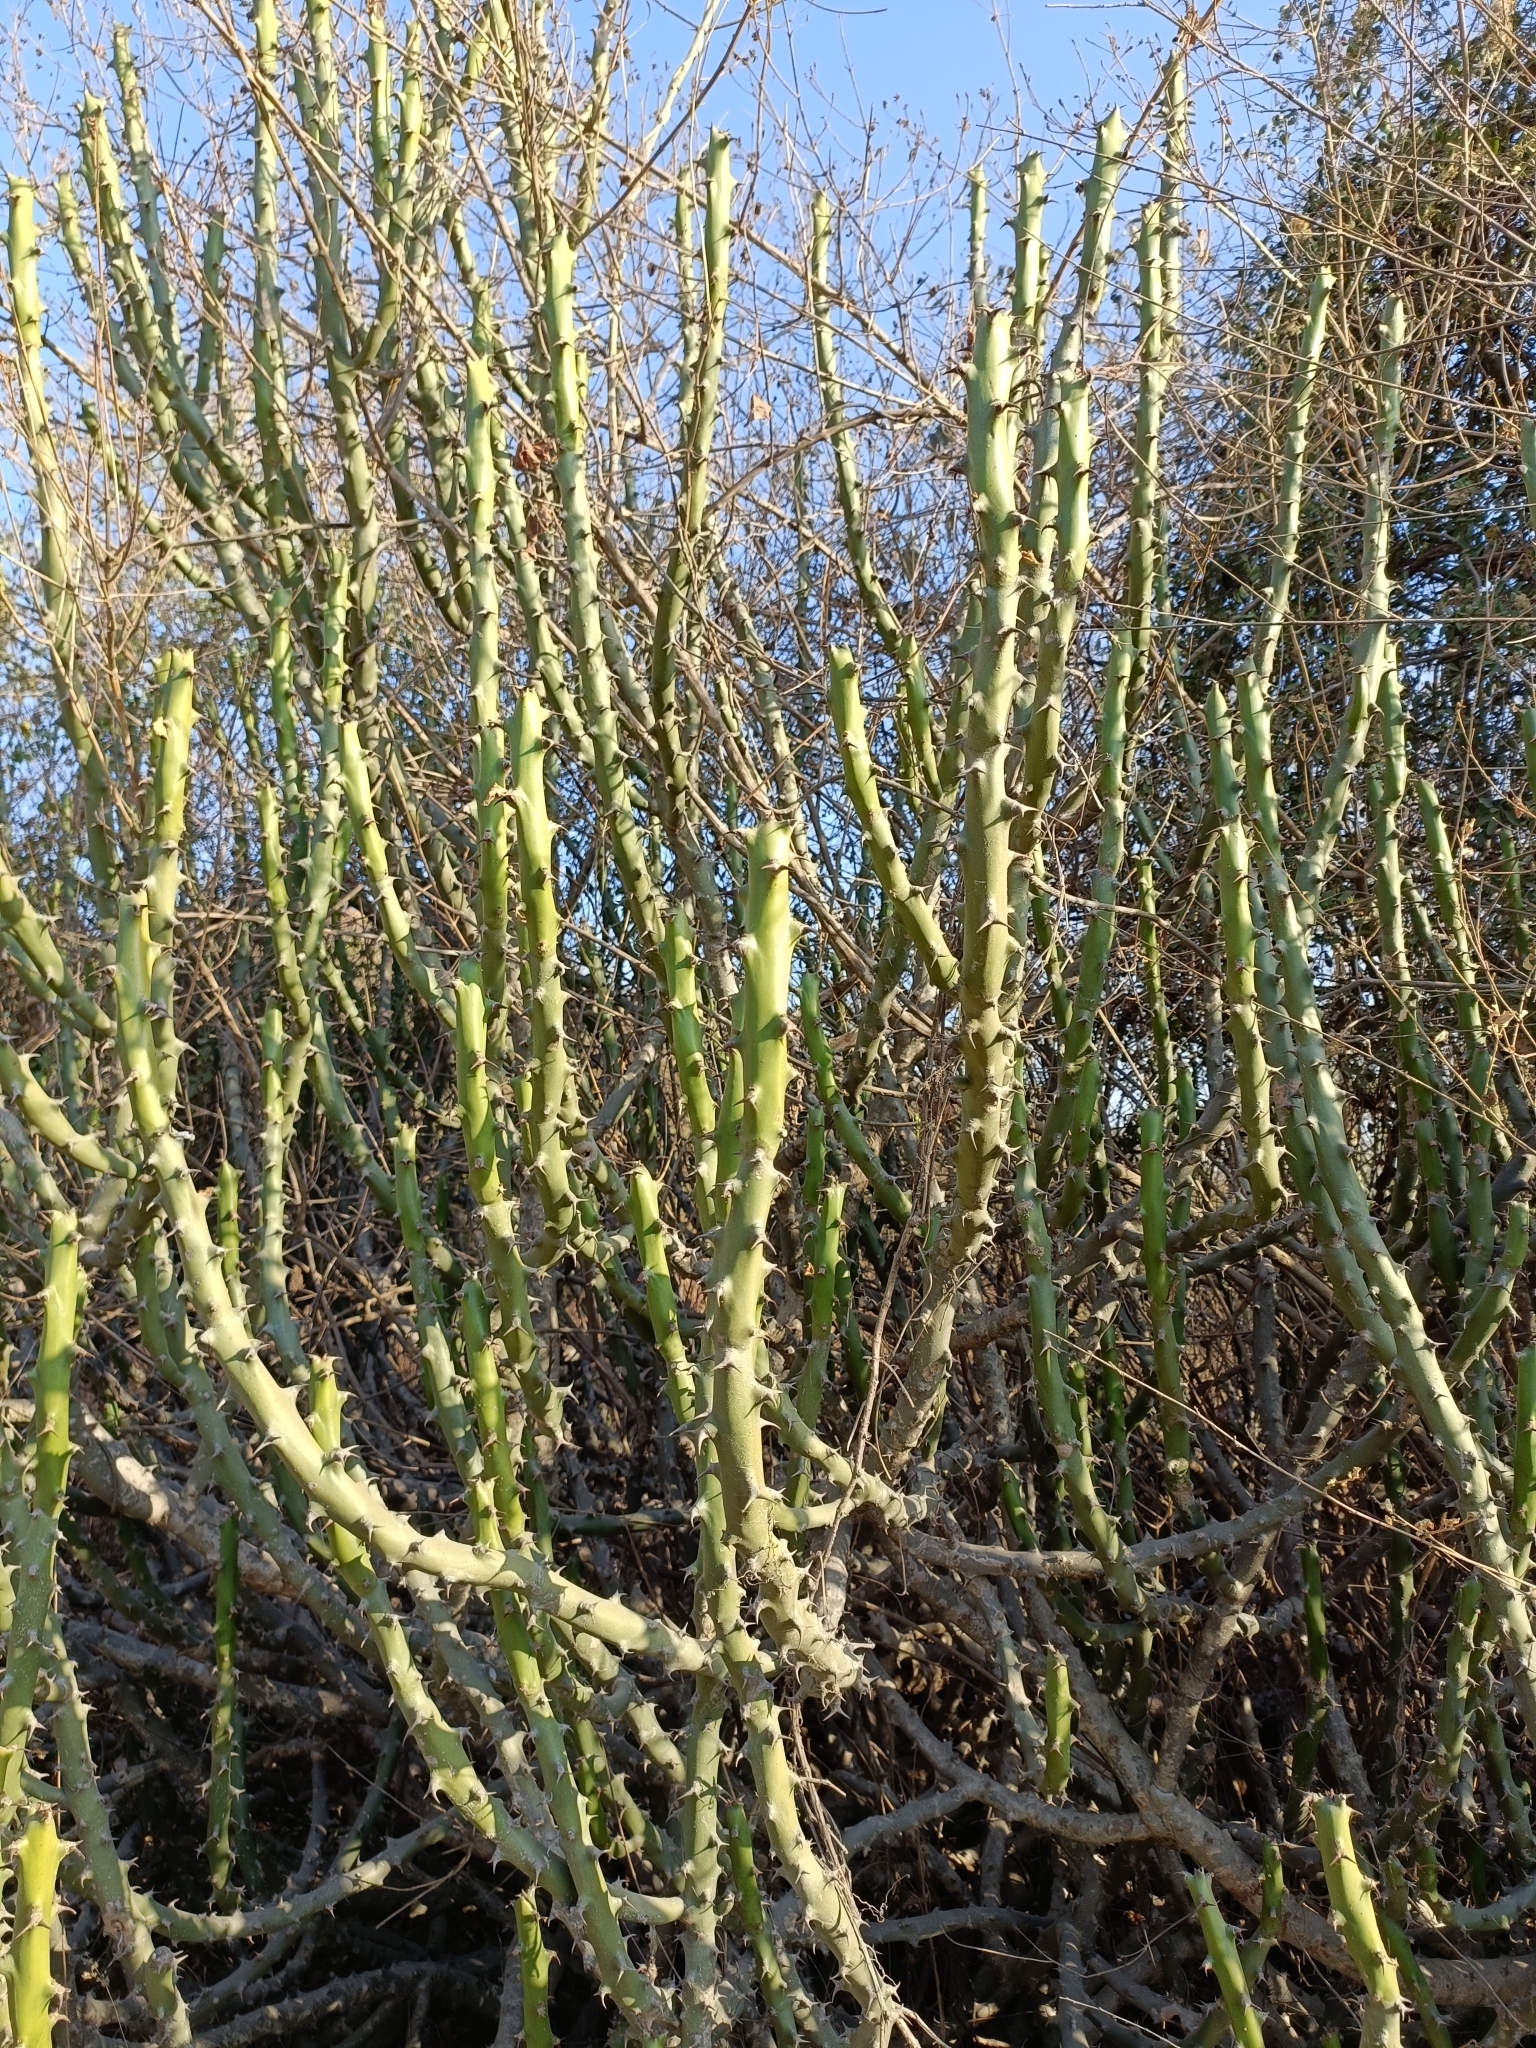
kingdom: Plantae
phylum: Tracheophyta
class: Magnoliopsida
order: Malpighiales
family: Euphorbiaceae
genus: Euphorbia
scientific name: Euphorbia caducifolia
